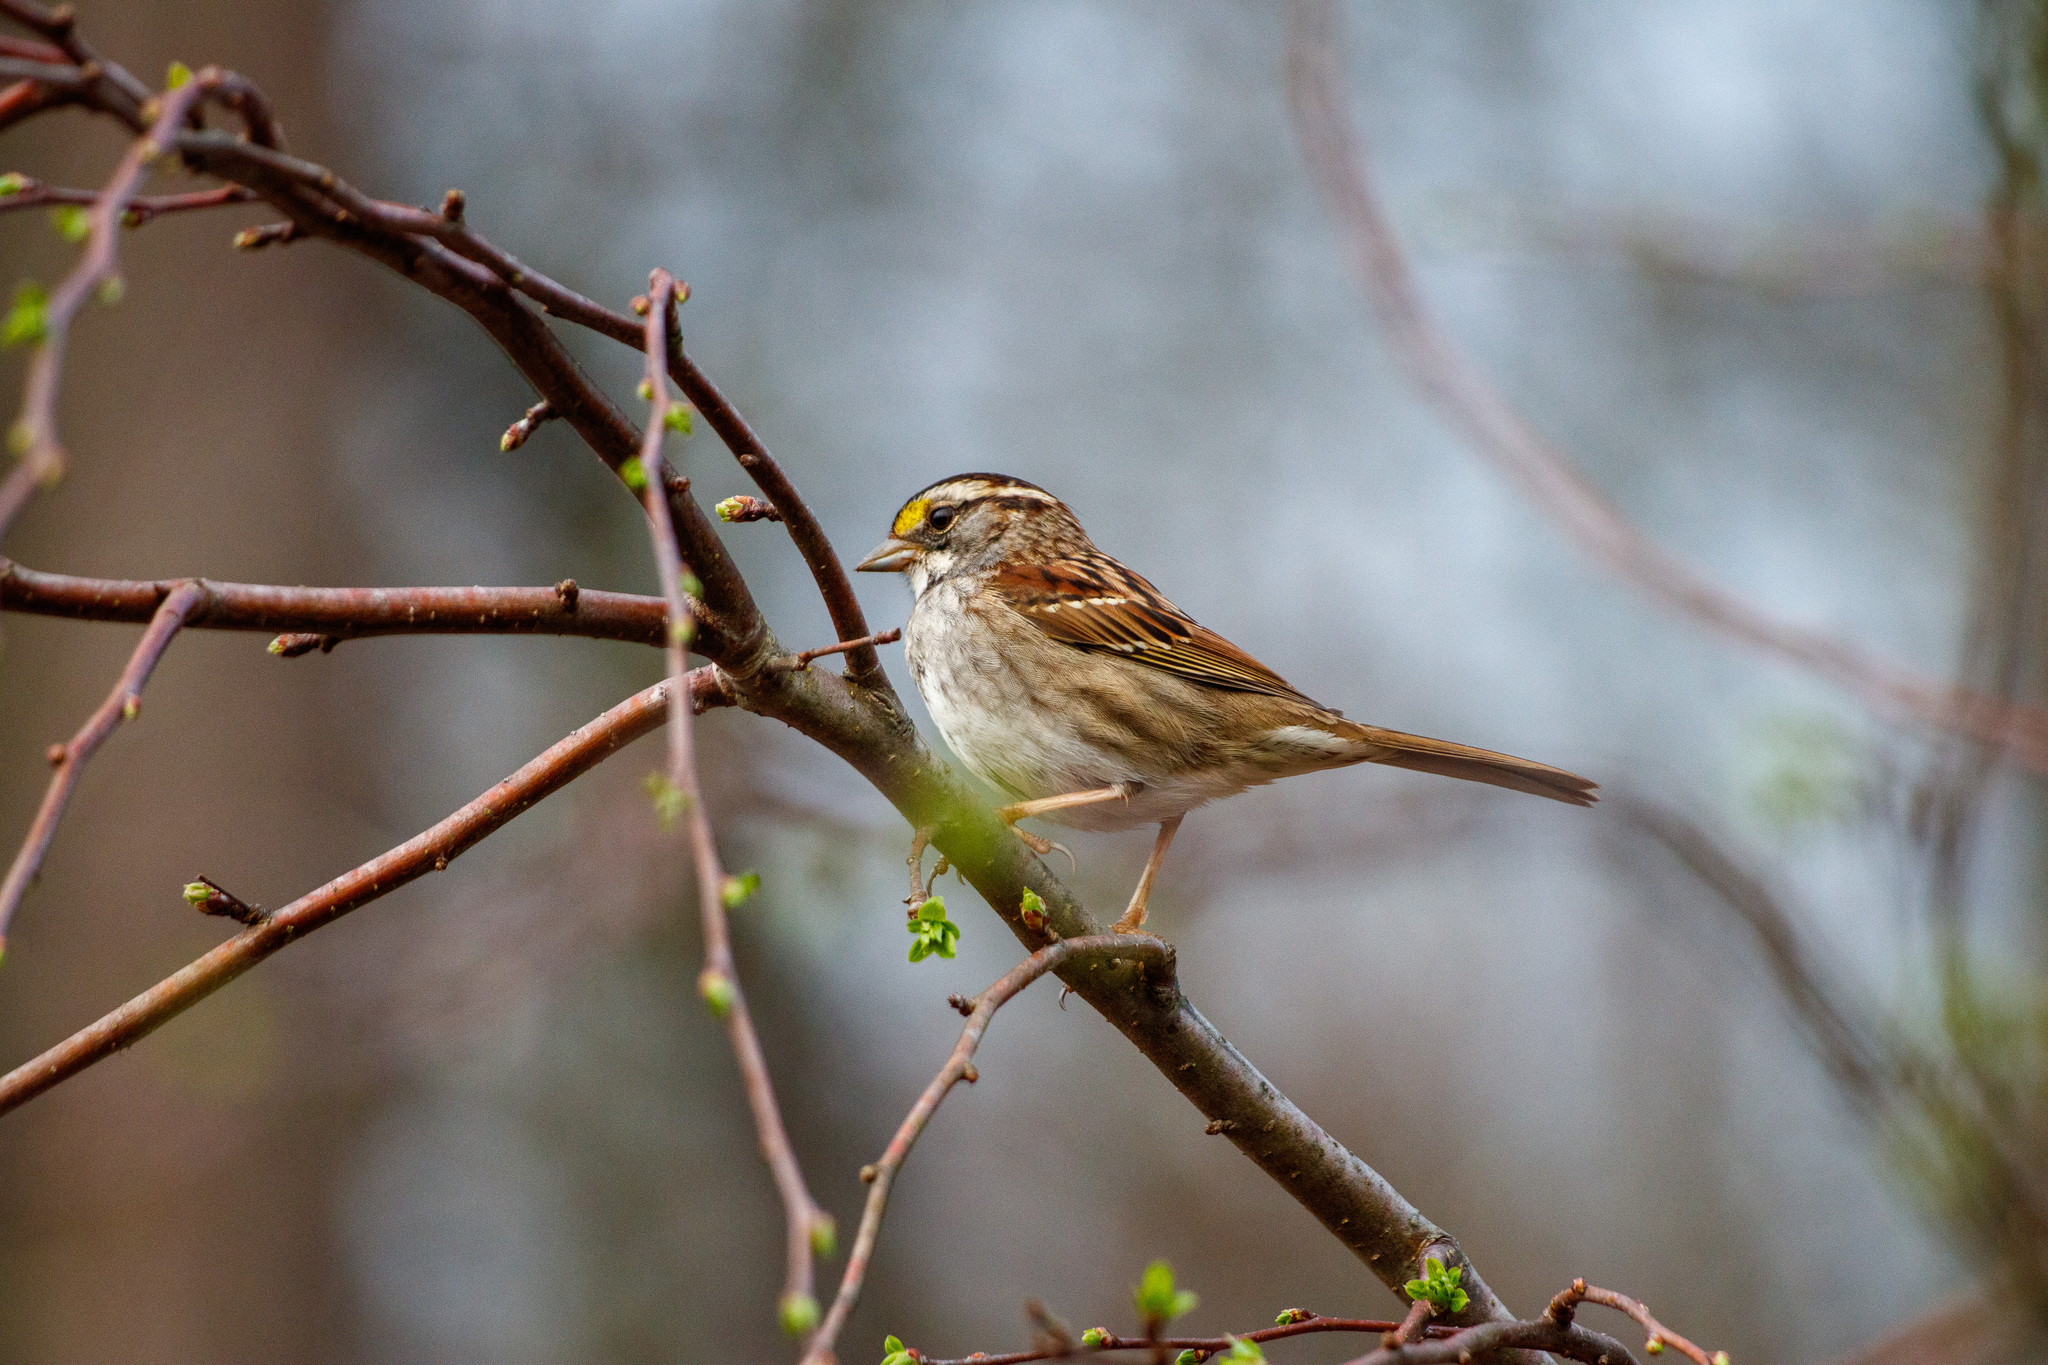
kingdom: Animalia
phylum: Chordata
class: Aves
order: Passeriformes
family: Passerellidae
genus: Zonotrichia
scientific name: Zonotrichia albicollis
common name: White-throated sparrow
